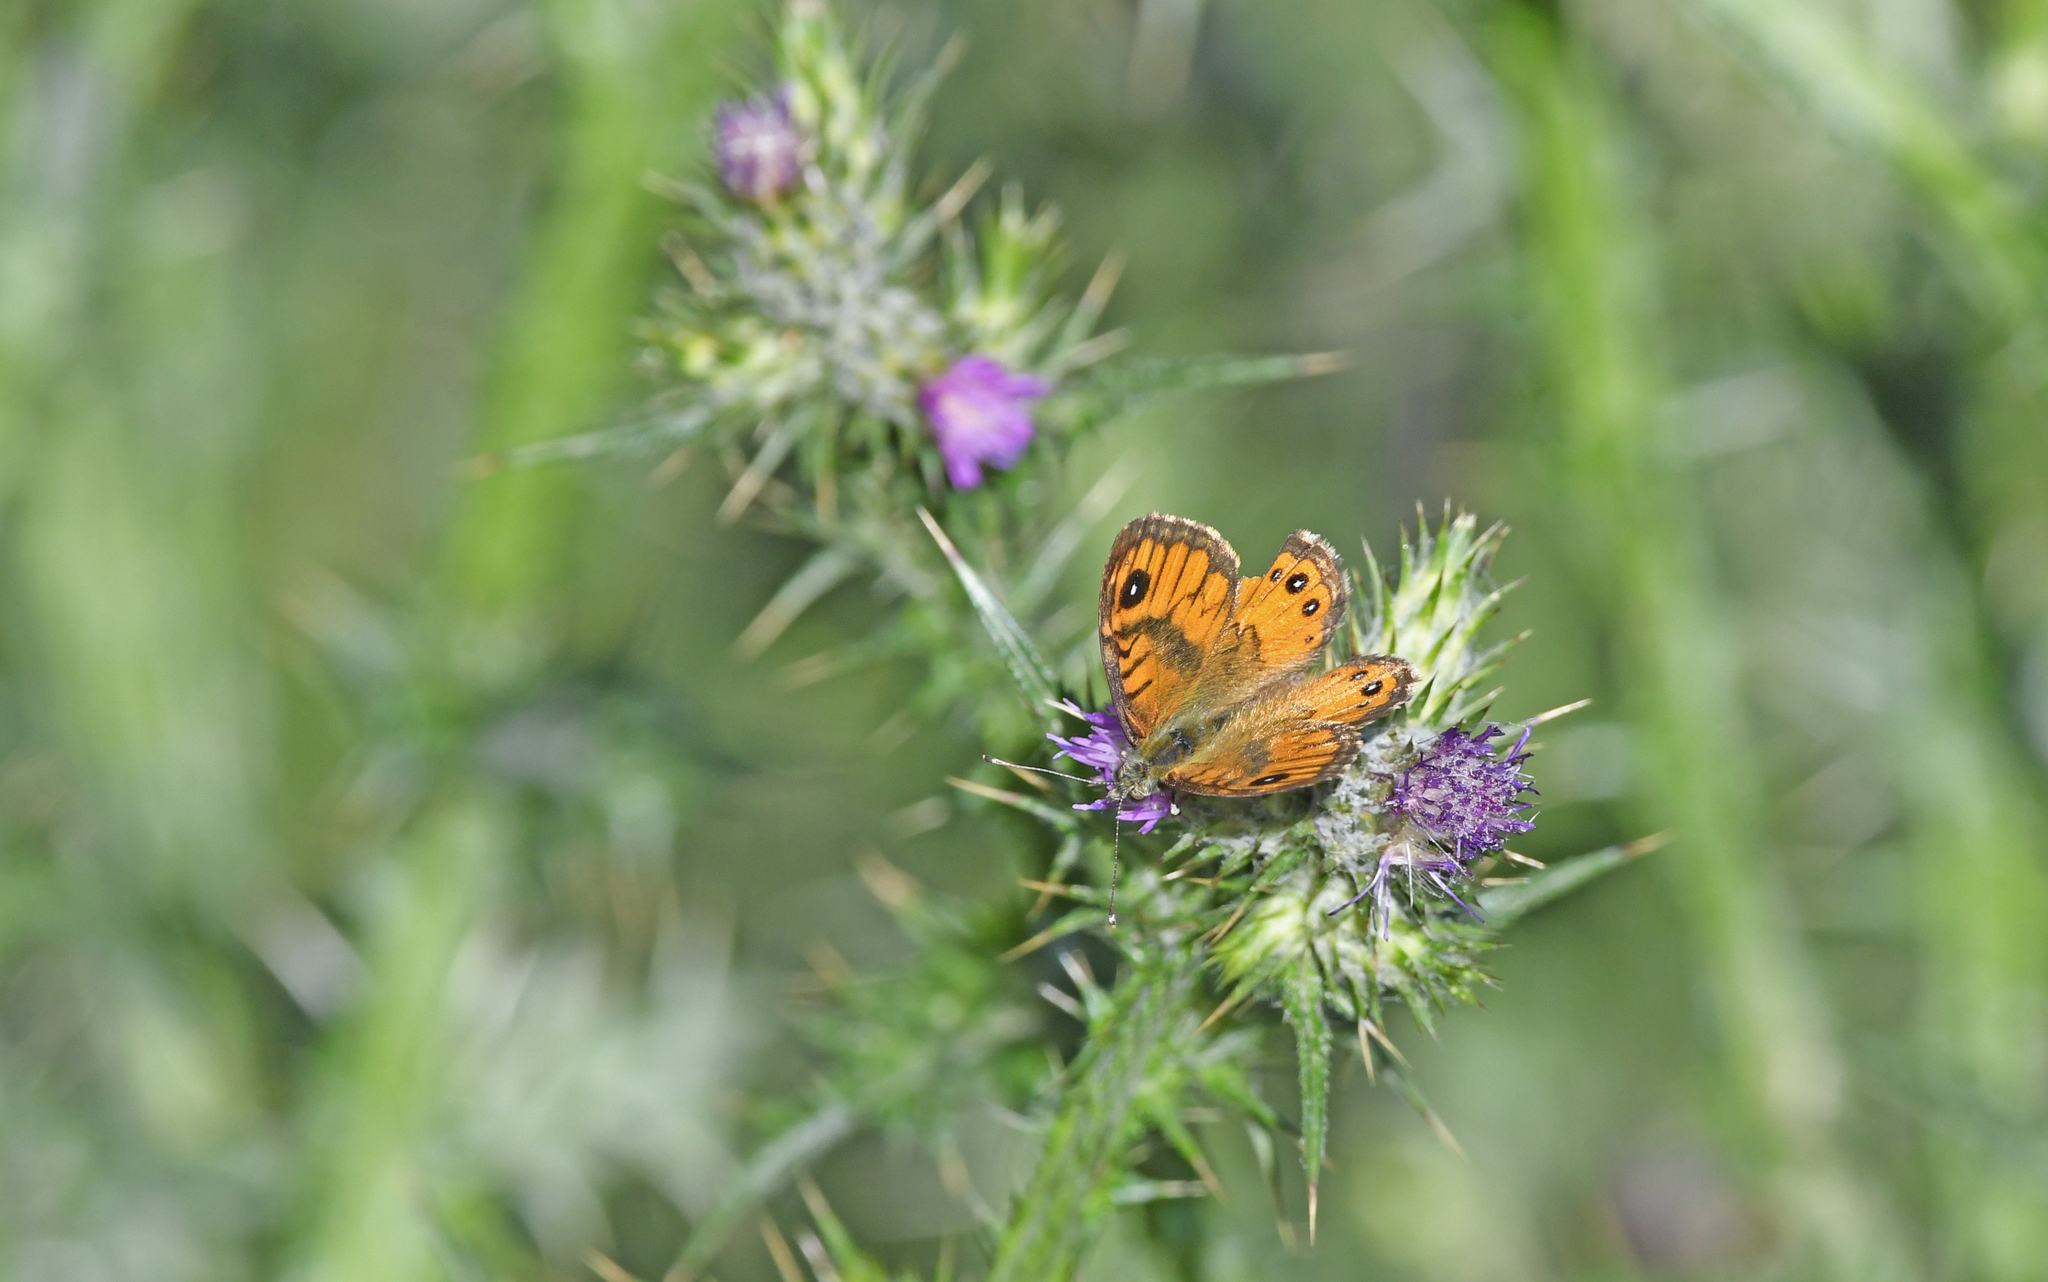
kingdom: Animalia
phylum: Arthropoda
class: Insecta
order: Lepidoptera
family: Nymphalidae
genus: Pararge
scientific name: Pararge Lasiommata paramegaera
